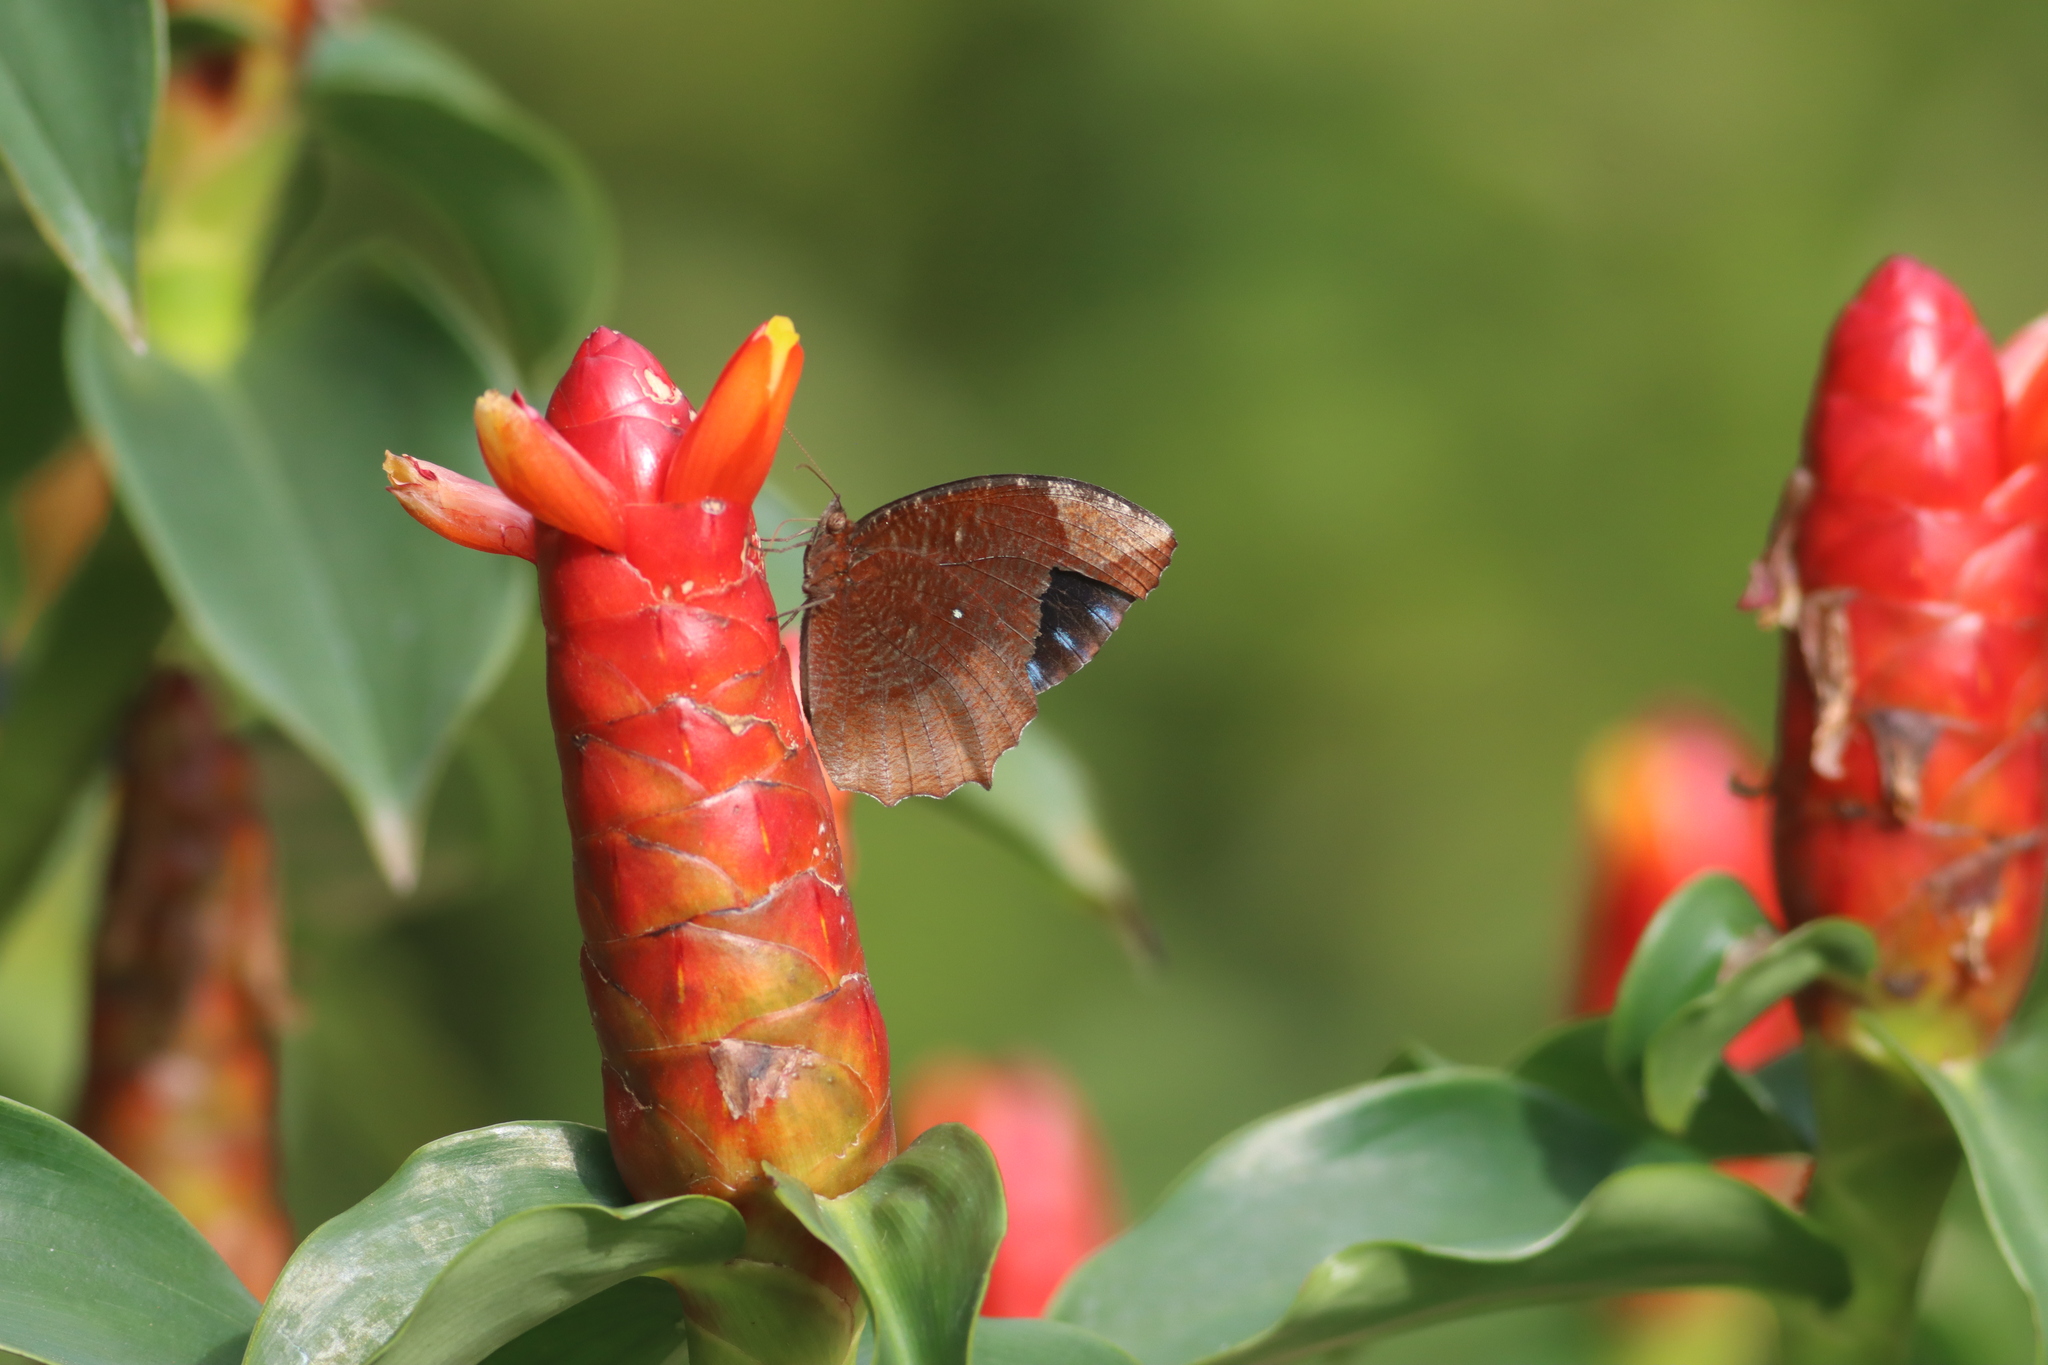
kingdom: Animalia
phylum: Arthropoda
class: Insecta
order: Lepidoptera
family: Nymphalidae
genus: Elymnias
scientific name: Elymnias hypermnestra
